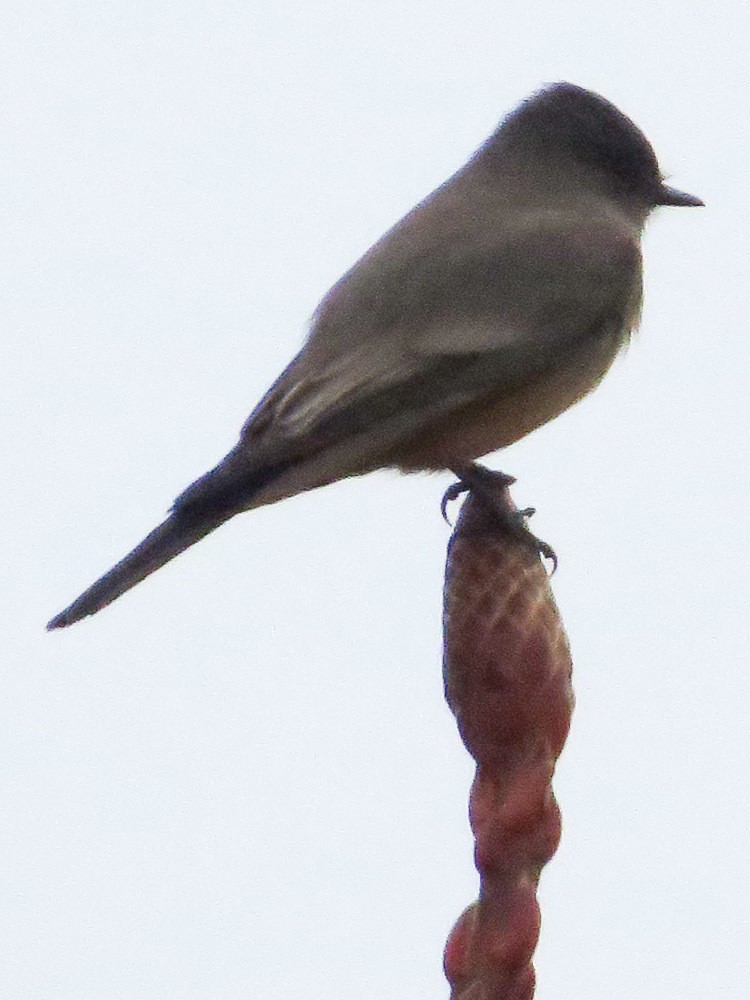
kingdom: Animalia
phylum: Chordata
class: Aves
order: Passeriformes
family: Tyrannidae
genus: Sayornis
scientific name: Sayornis saya
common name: Say's phoebe
